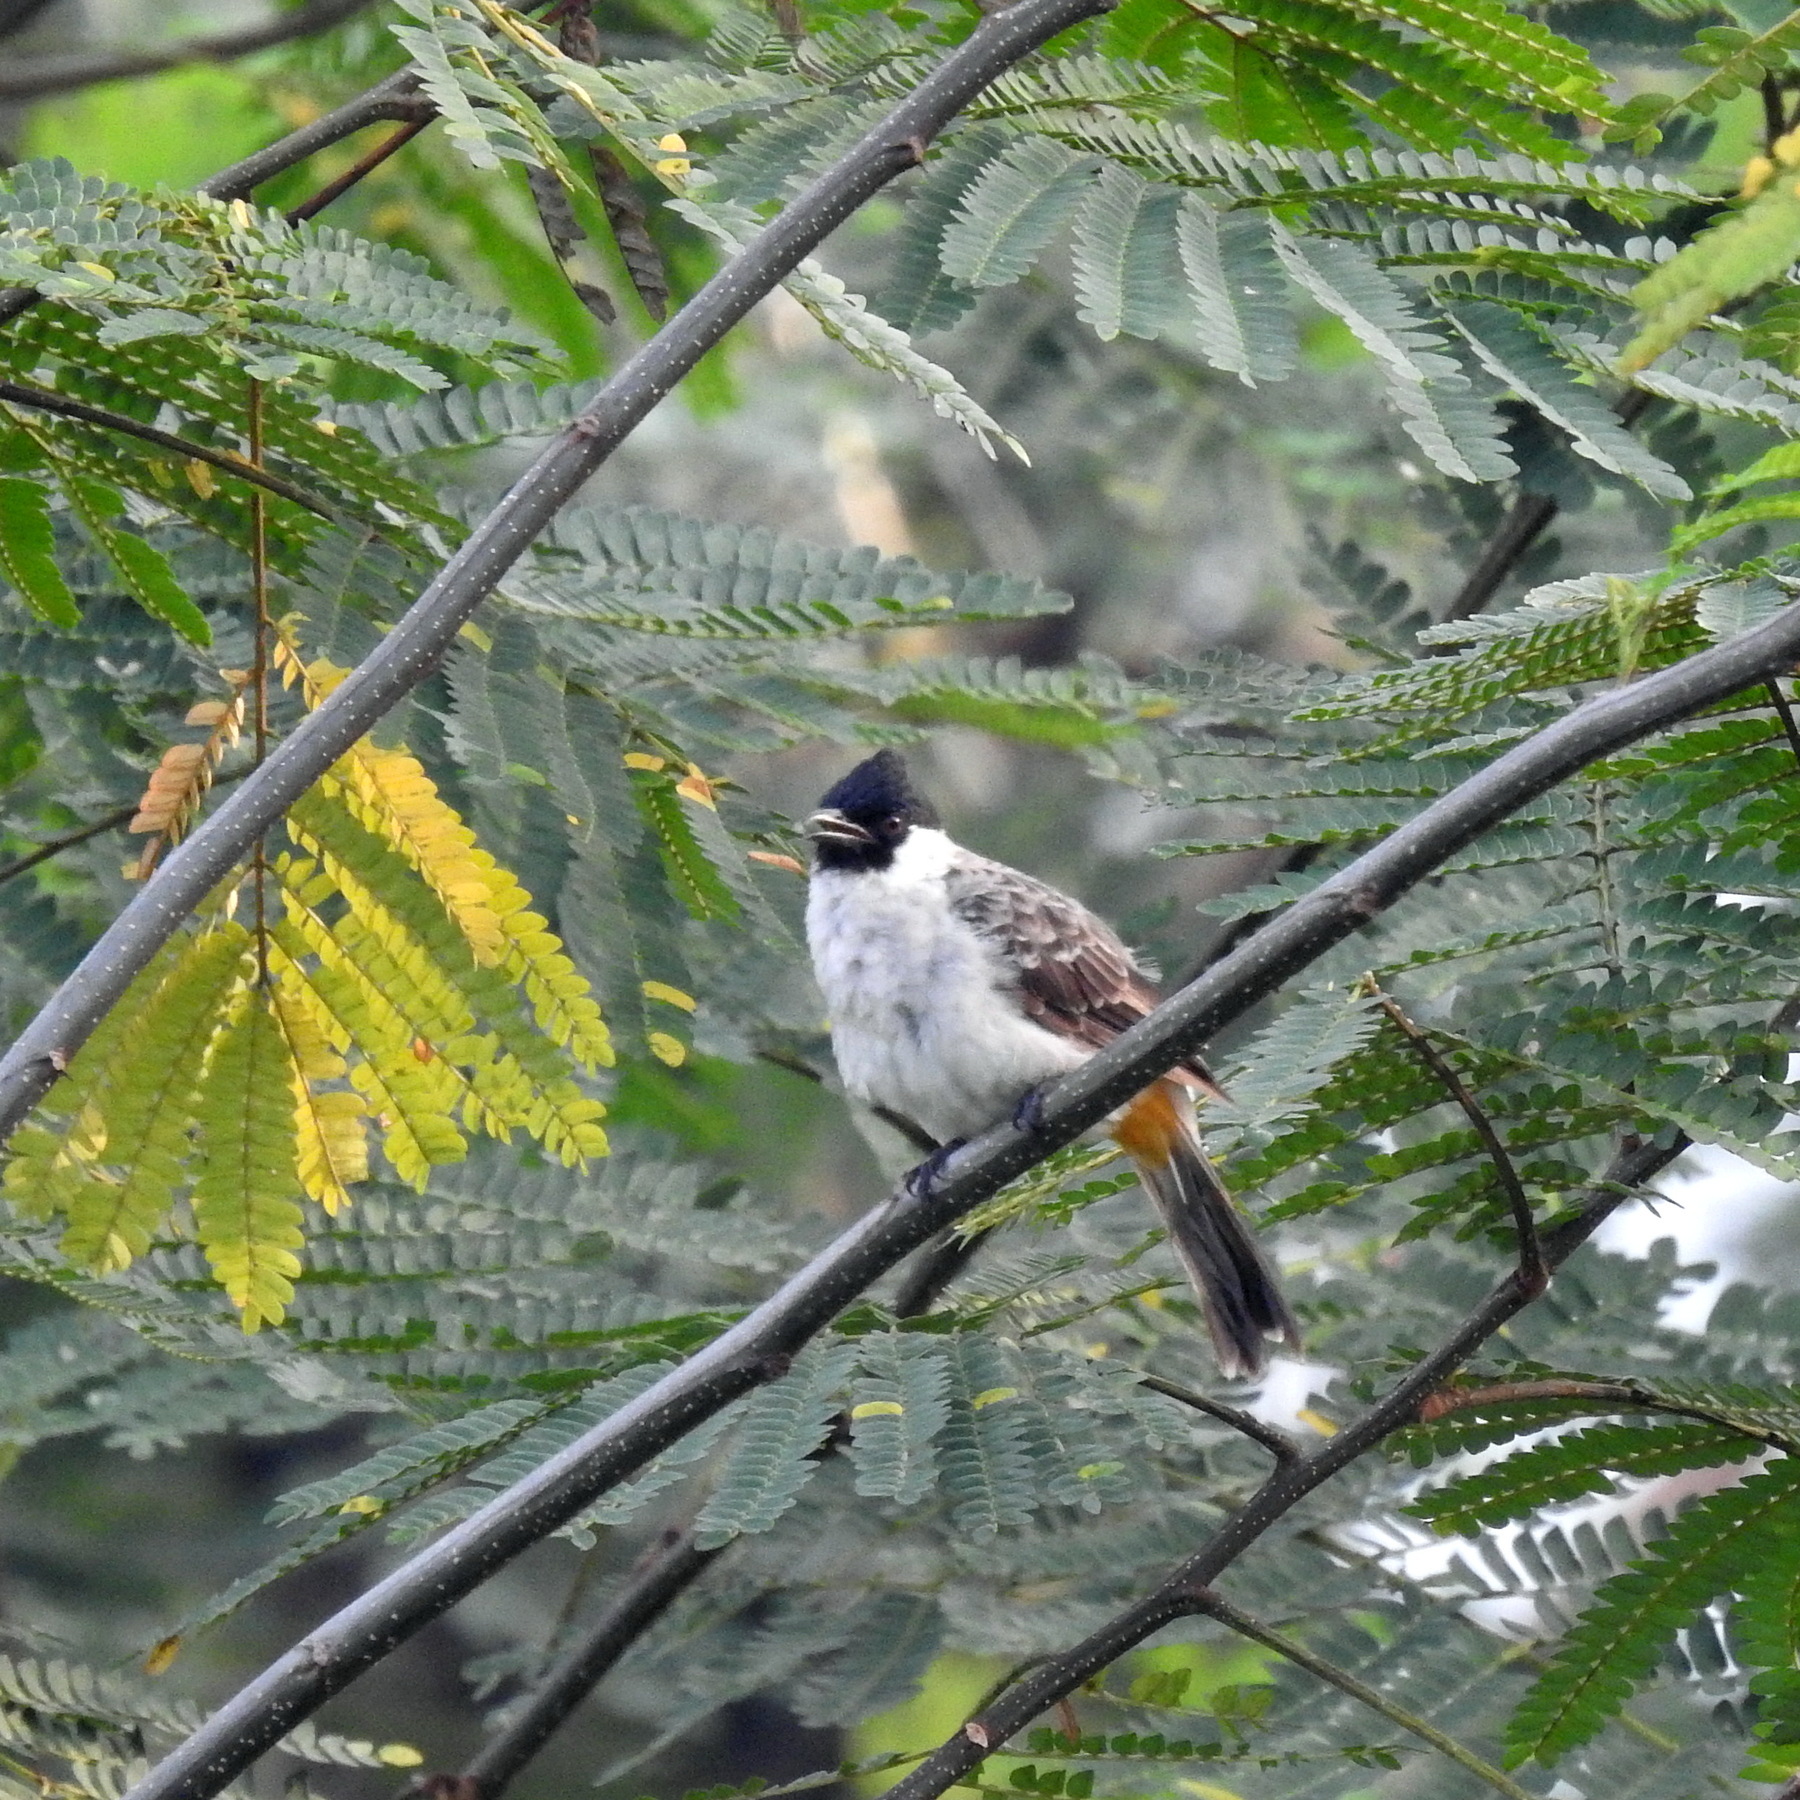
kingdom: Animalia
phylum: Chordata
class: Aves
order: Passeriformes
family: Pycnonotidae
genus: Pycnonotus
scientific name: Pycnonotus aurigaster
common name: Sooty-headed bulbul
